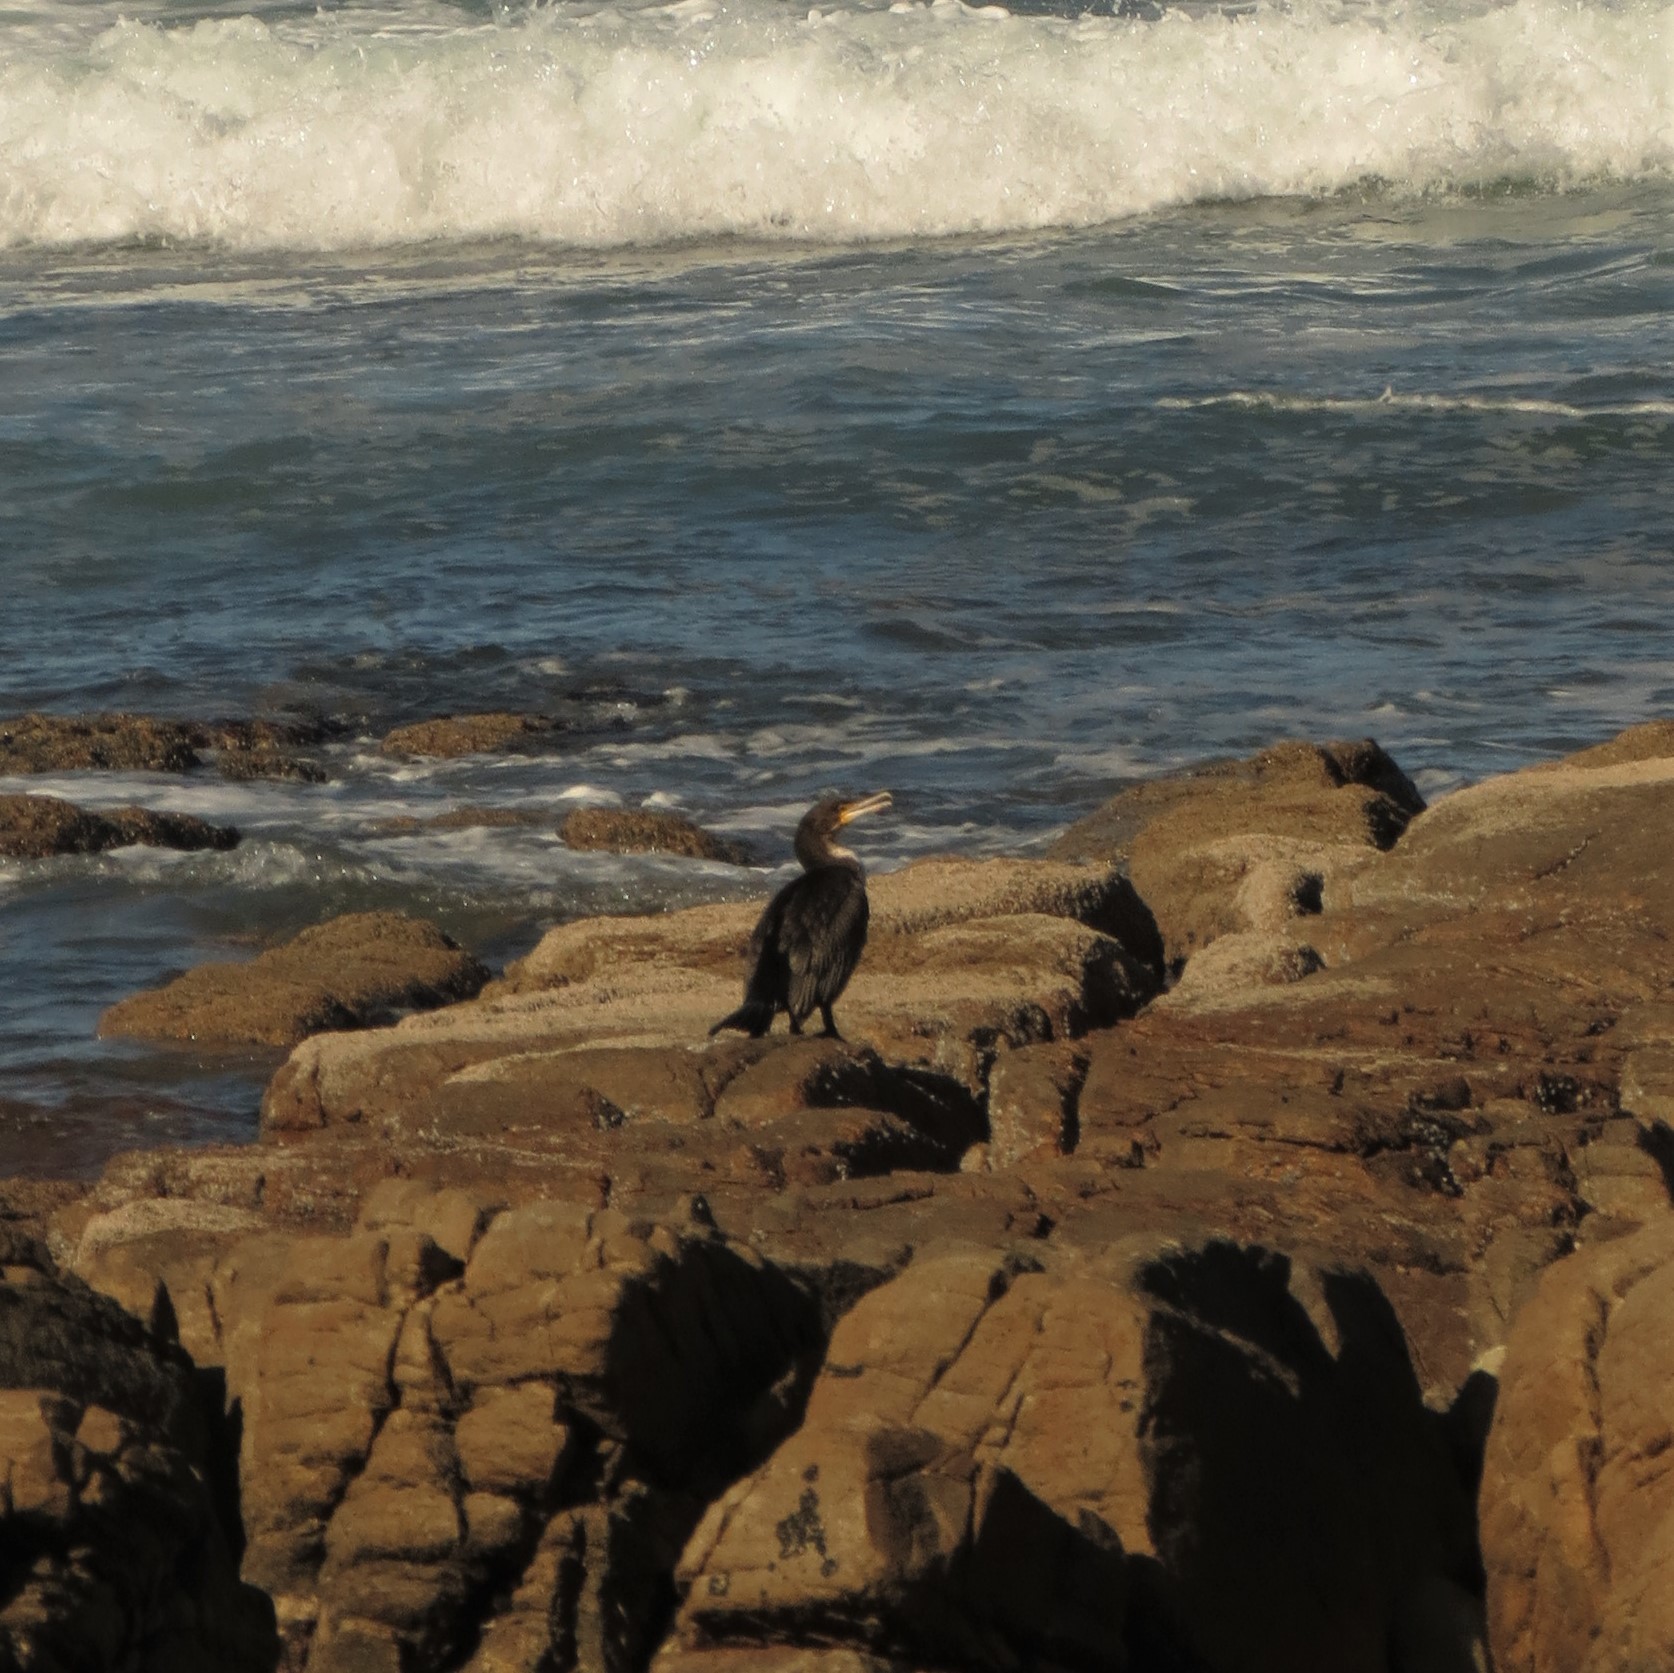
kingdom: Animalia
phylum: Chordata
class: Aves
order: Suliformes
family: Phalacrocoracidae
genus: Phalacrocorax
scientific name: Phalacrocorax capensis
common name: Cape cormorant
